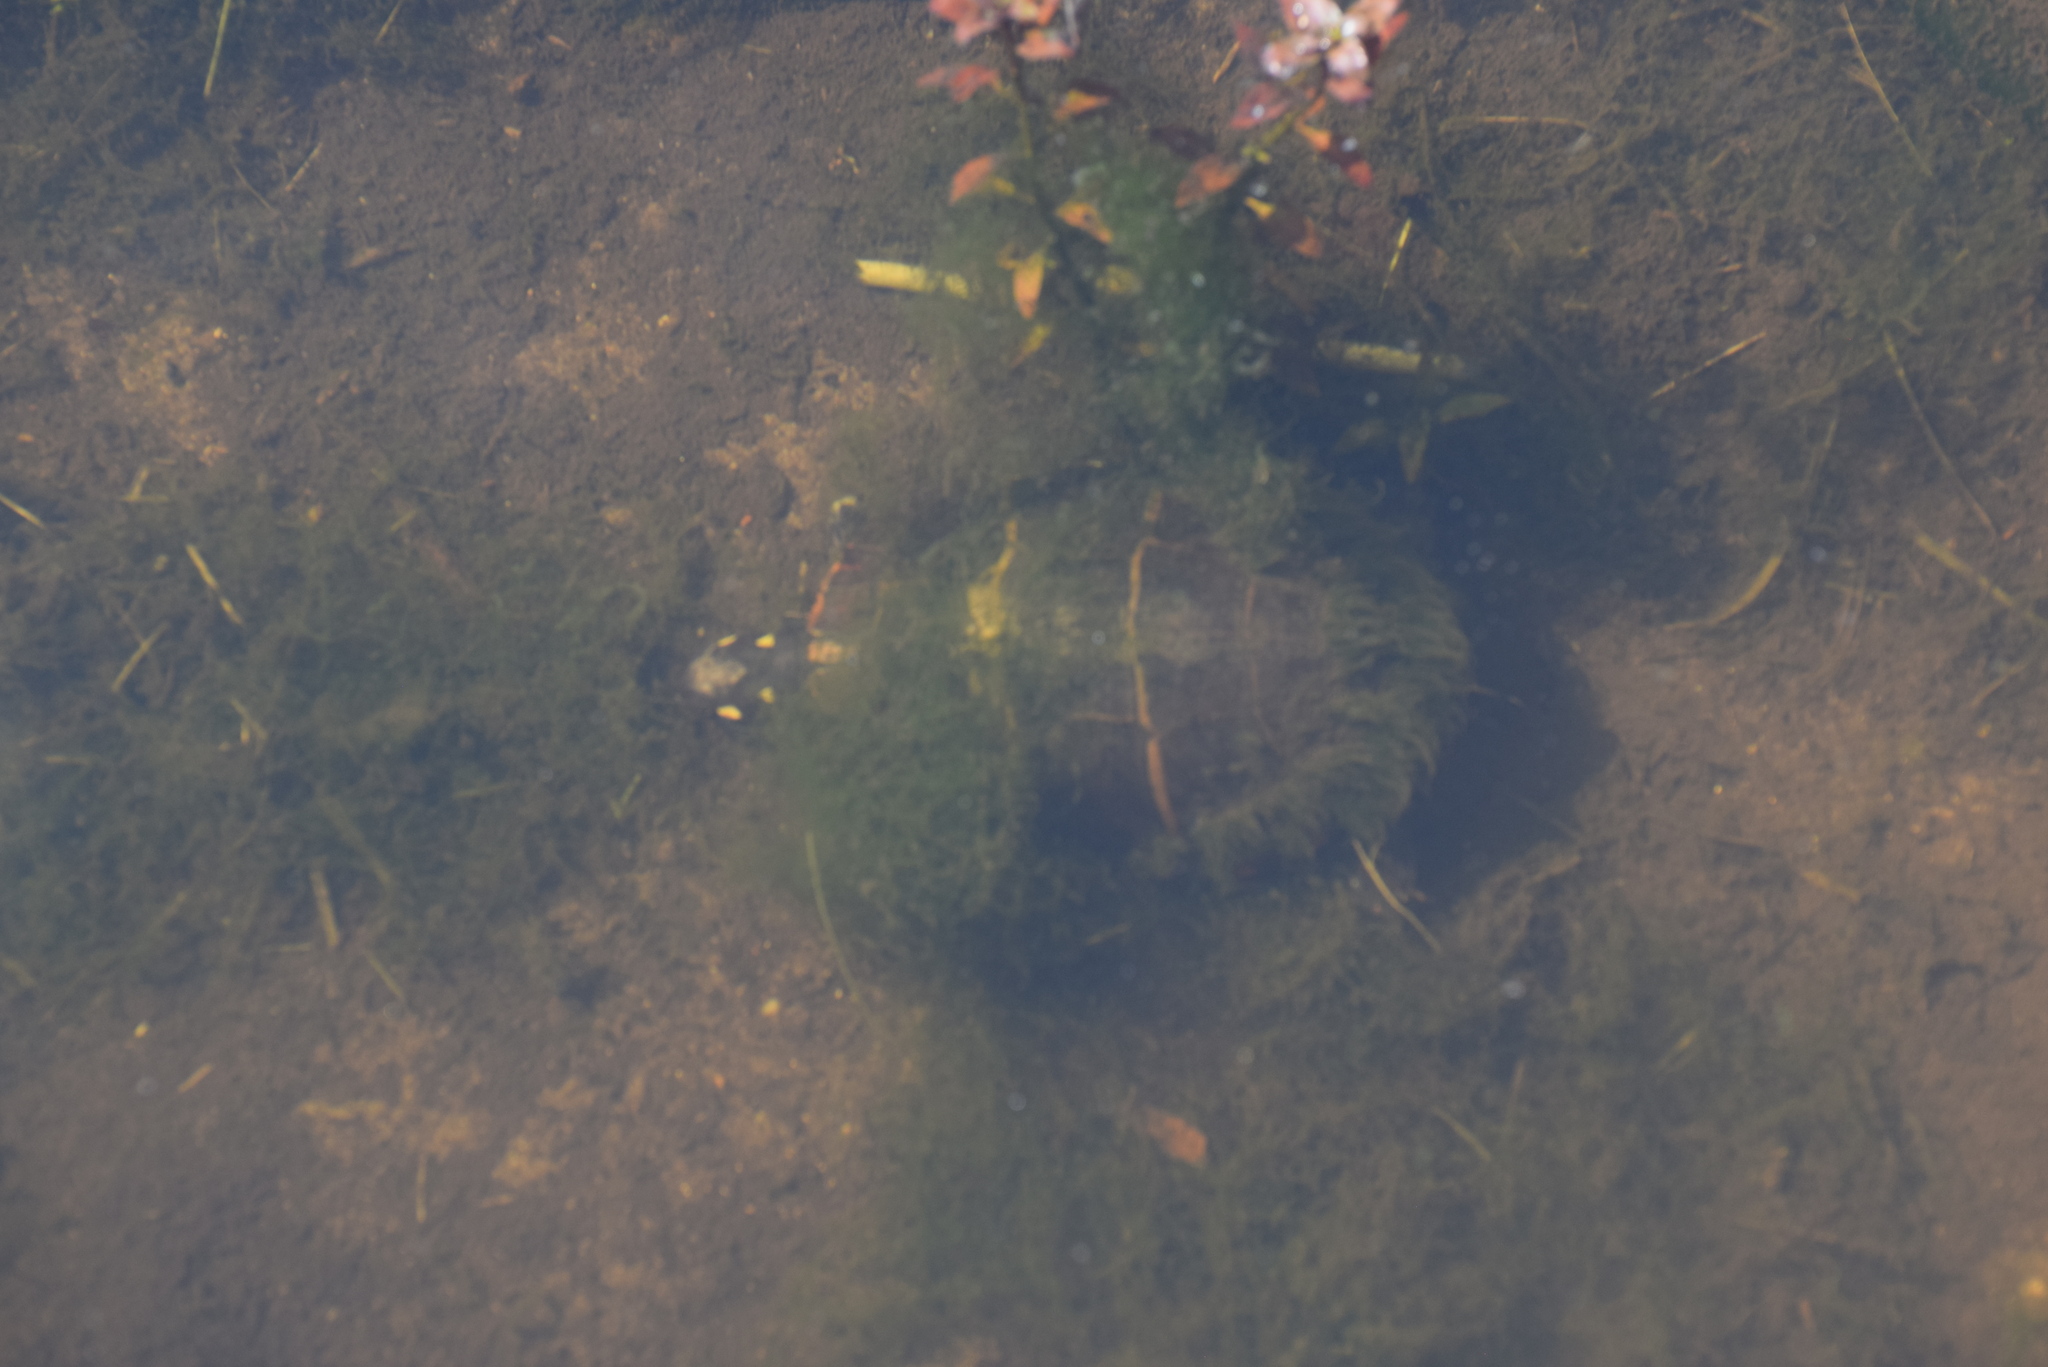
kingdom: Animalia
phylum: Chordata
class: Testudines
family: Emydidae
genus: Chrysemys
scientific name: Chrysemys picta
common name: Painted turtle
